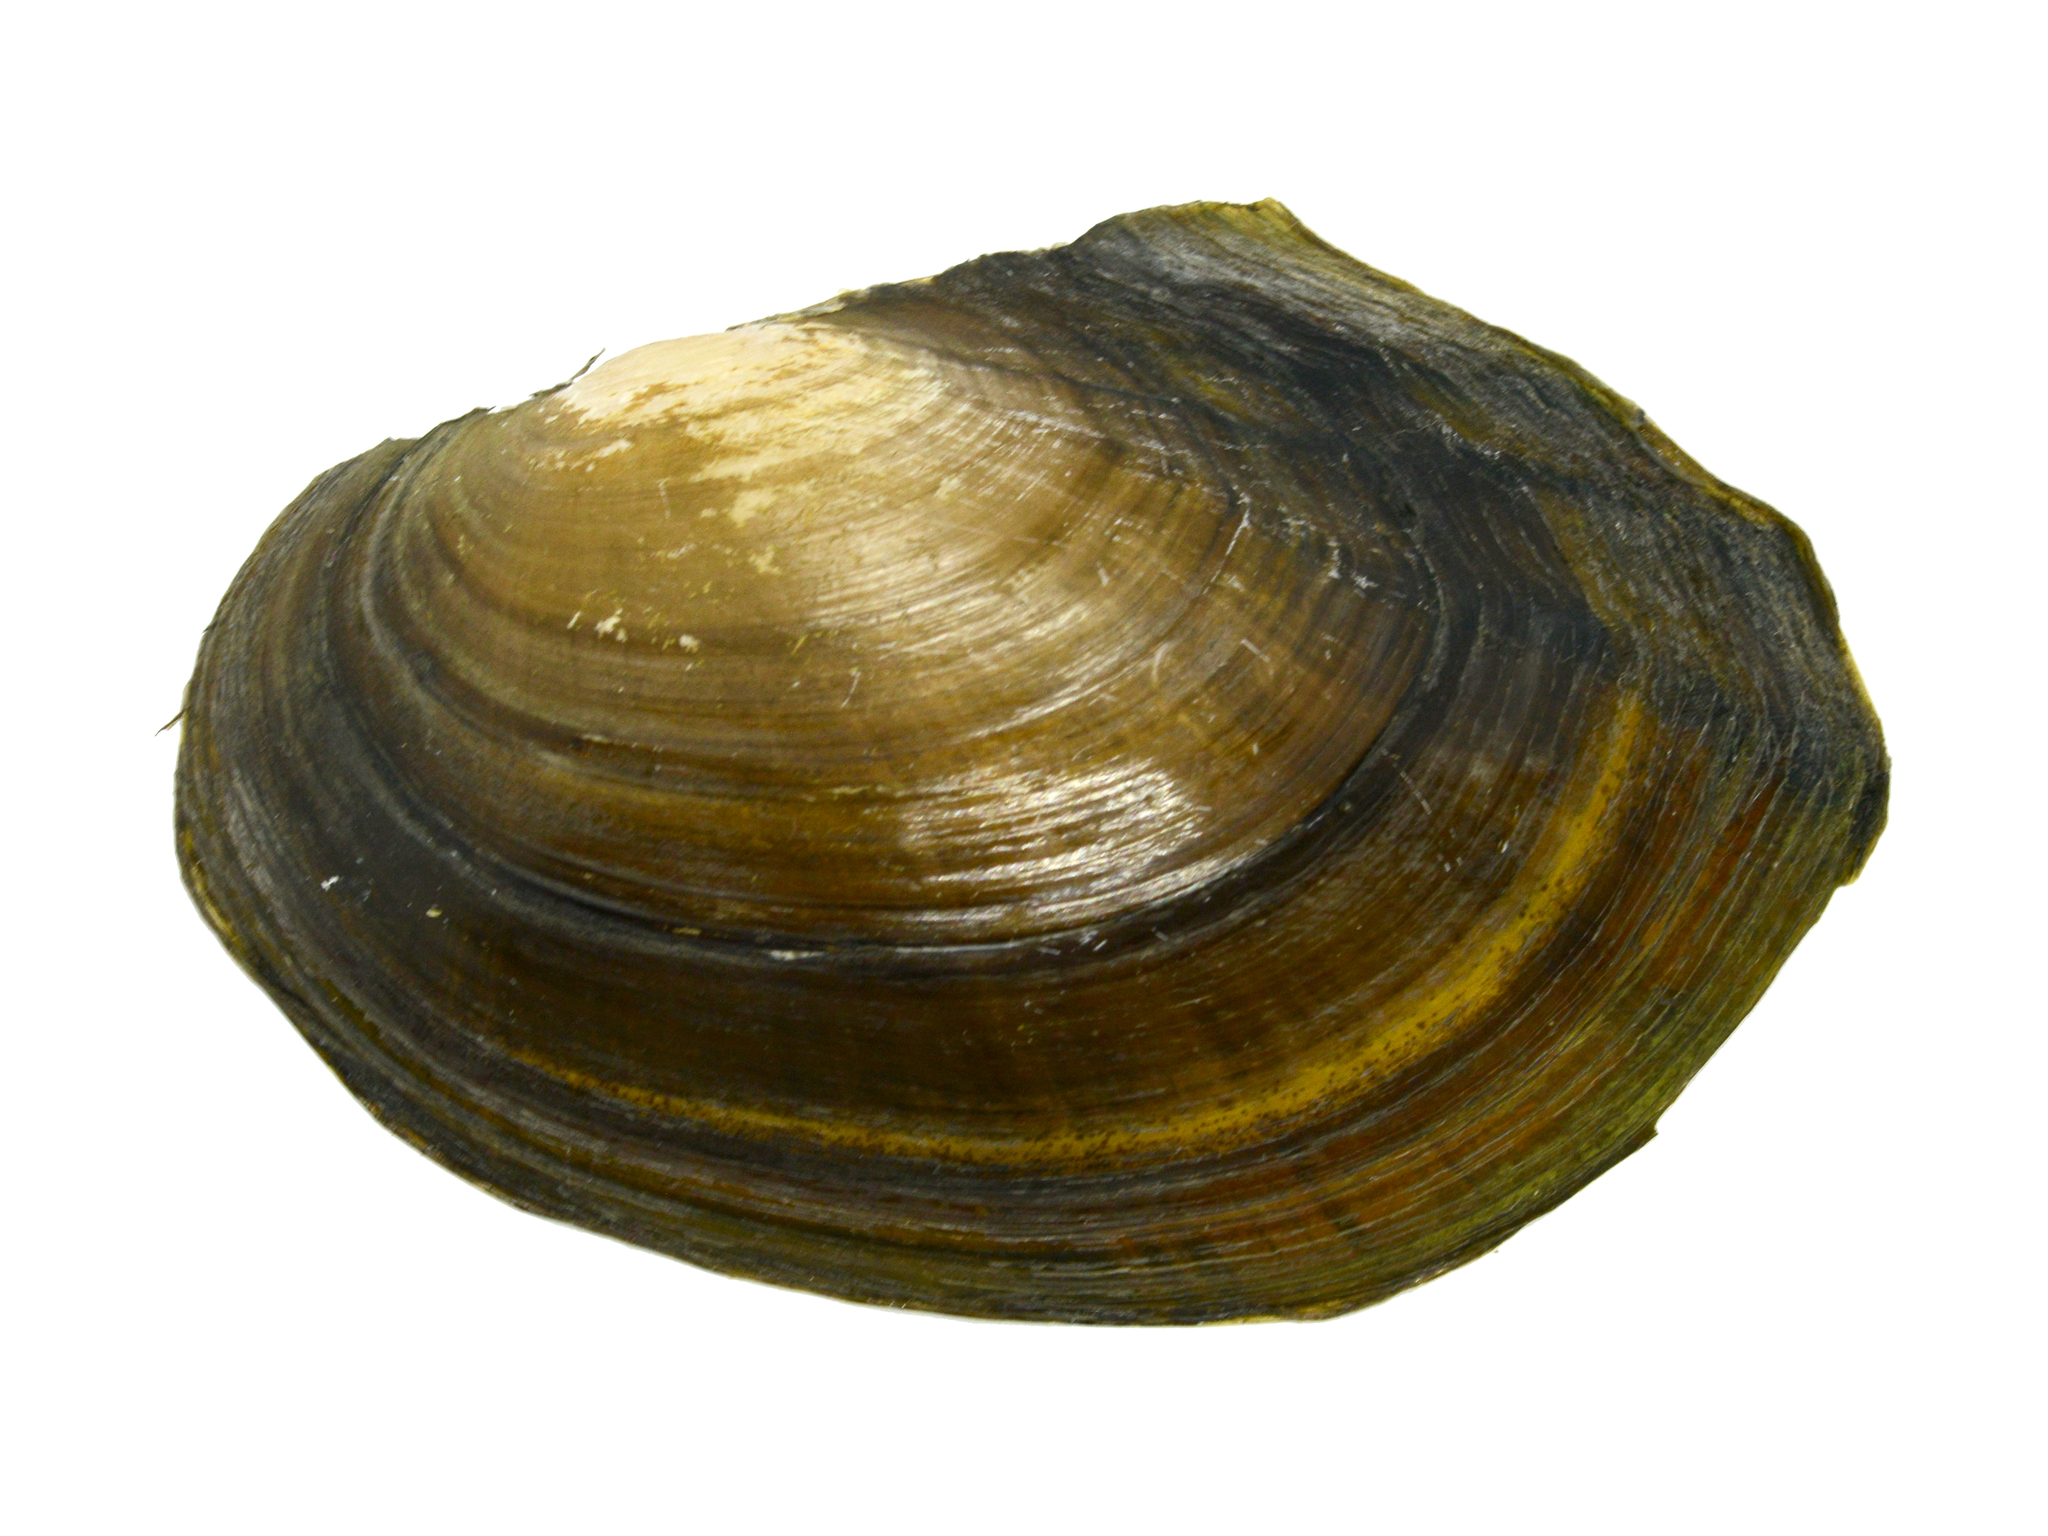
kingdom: Animalia
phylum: Mollusca
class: Bivalvia
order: Unionida
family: Unionidae
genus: Sinanodonta
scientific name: Sinanodonta lauta
